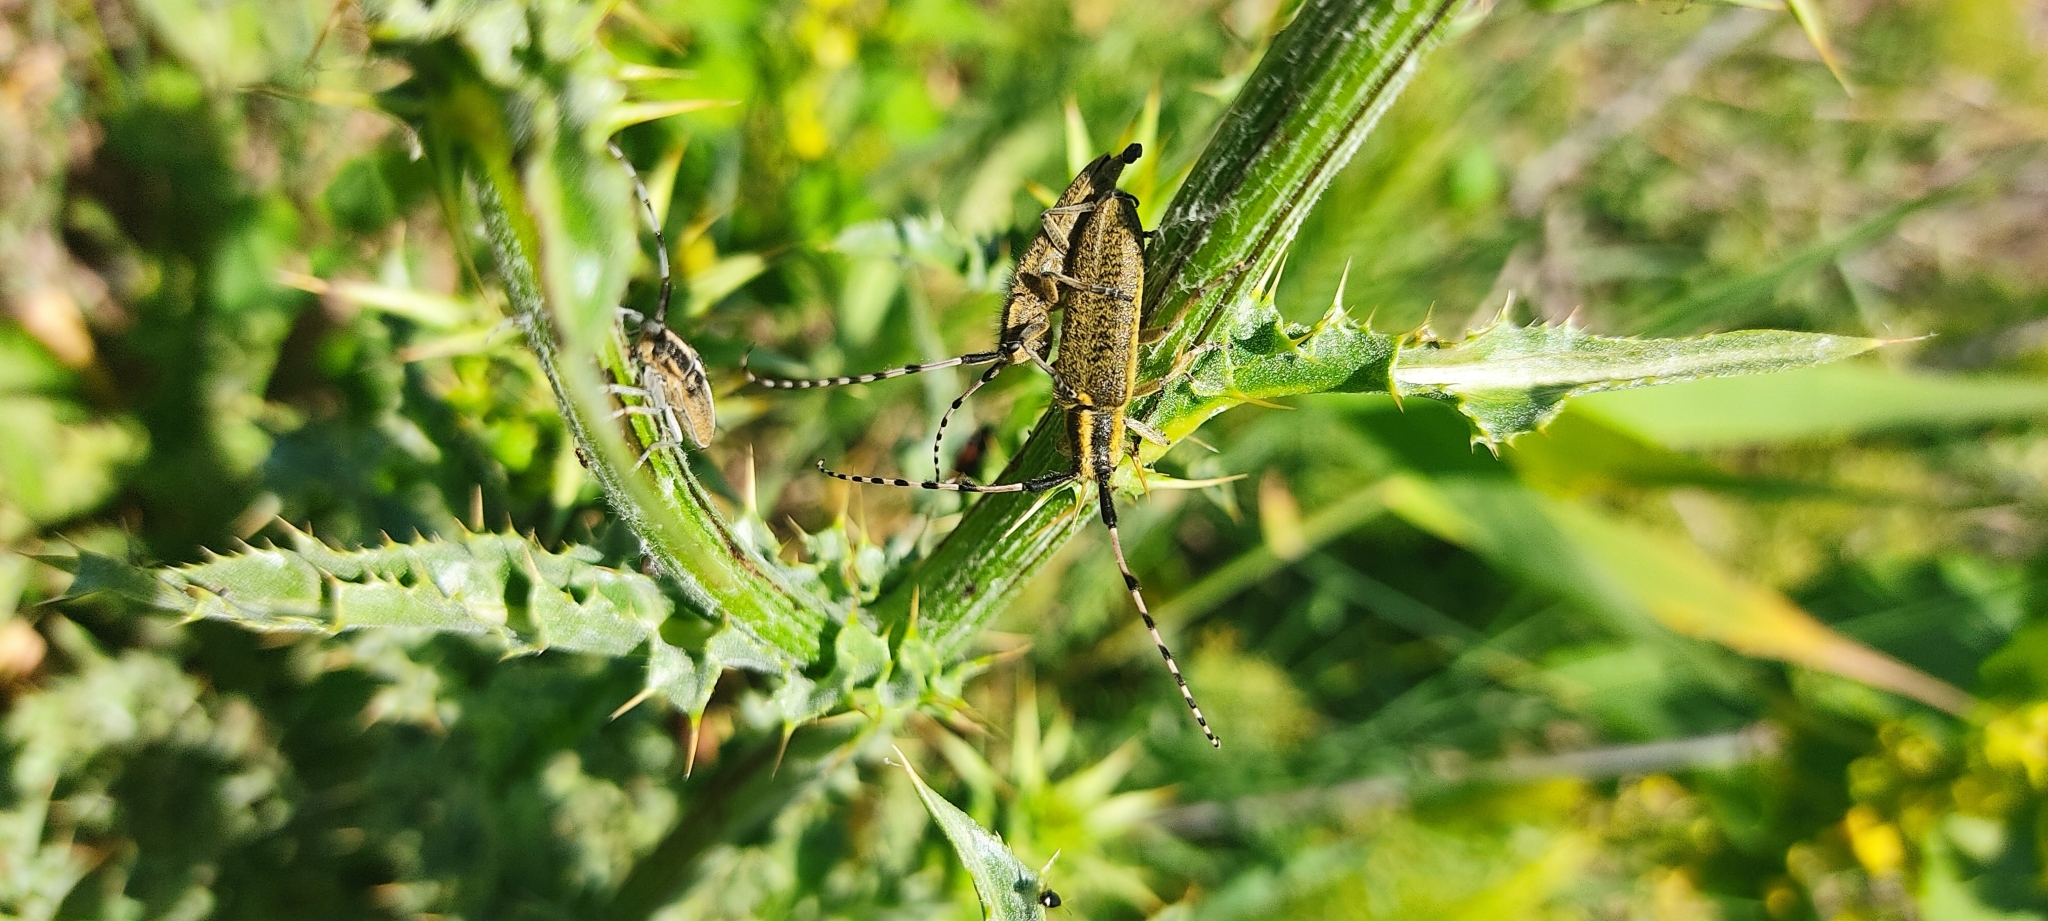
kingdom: Animalia
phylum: Arthropoda
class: Insecta
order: Coleoptera
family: Cerambycidae
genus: Agapanthia
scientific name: Agapanthia dahlii
